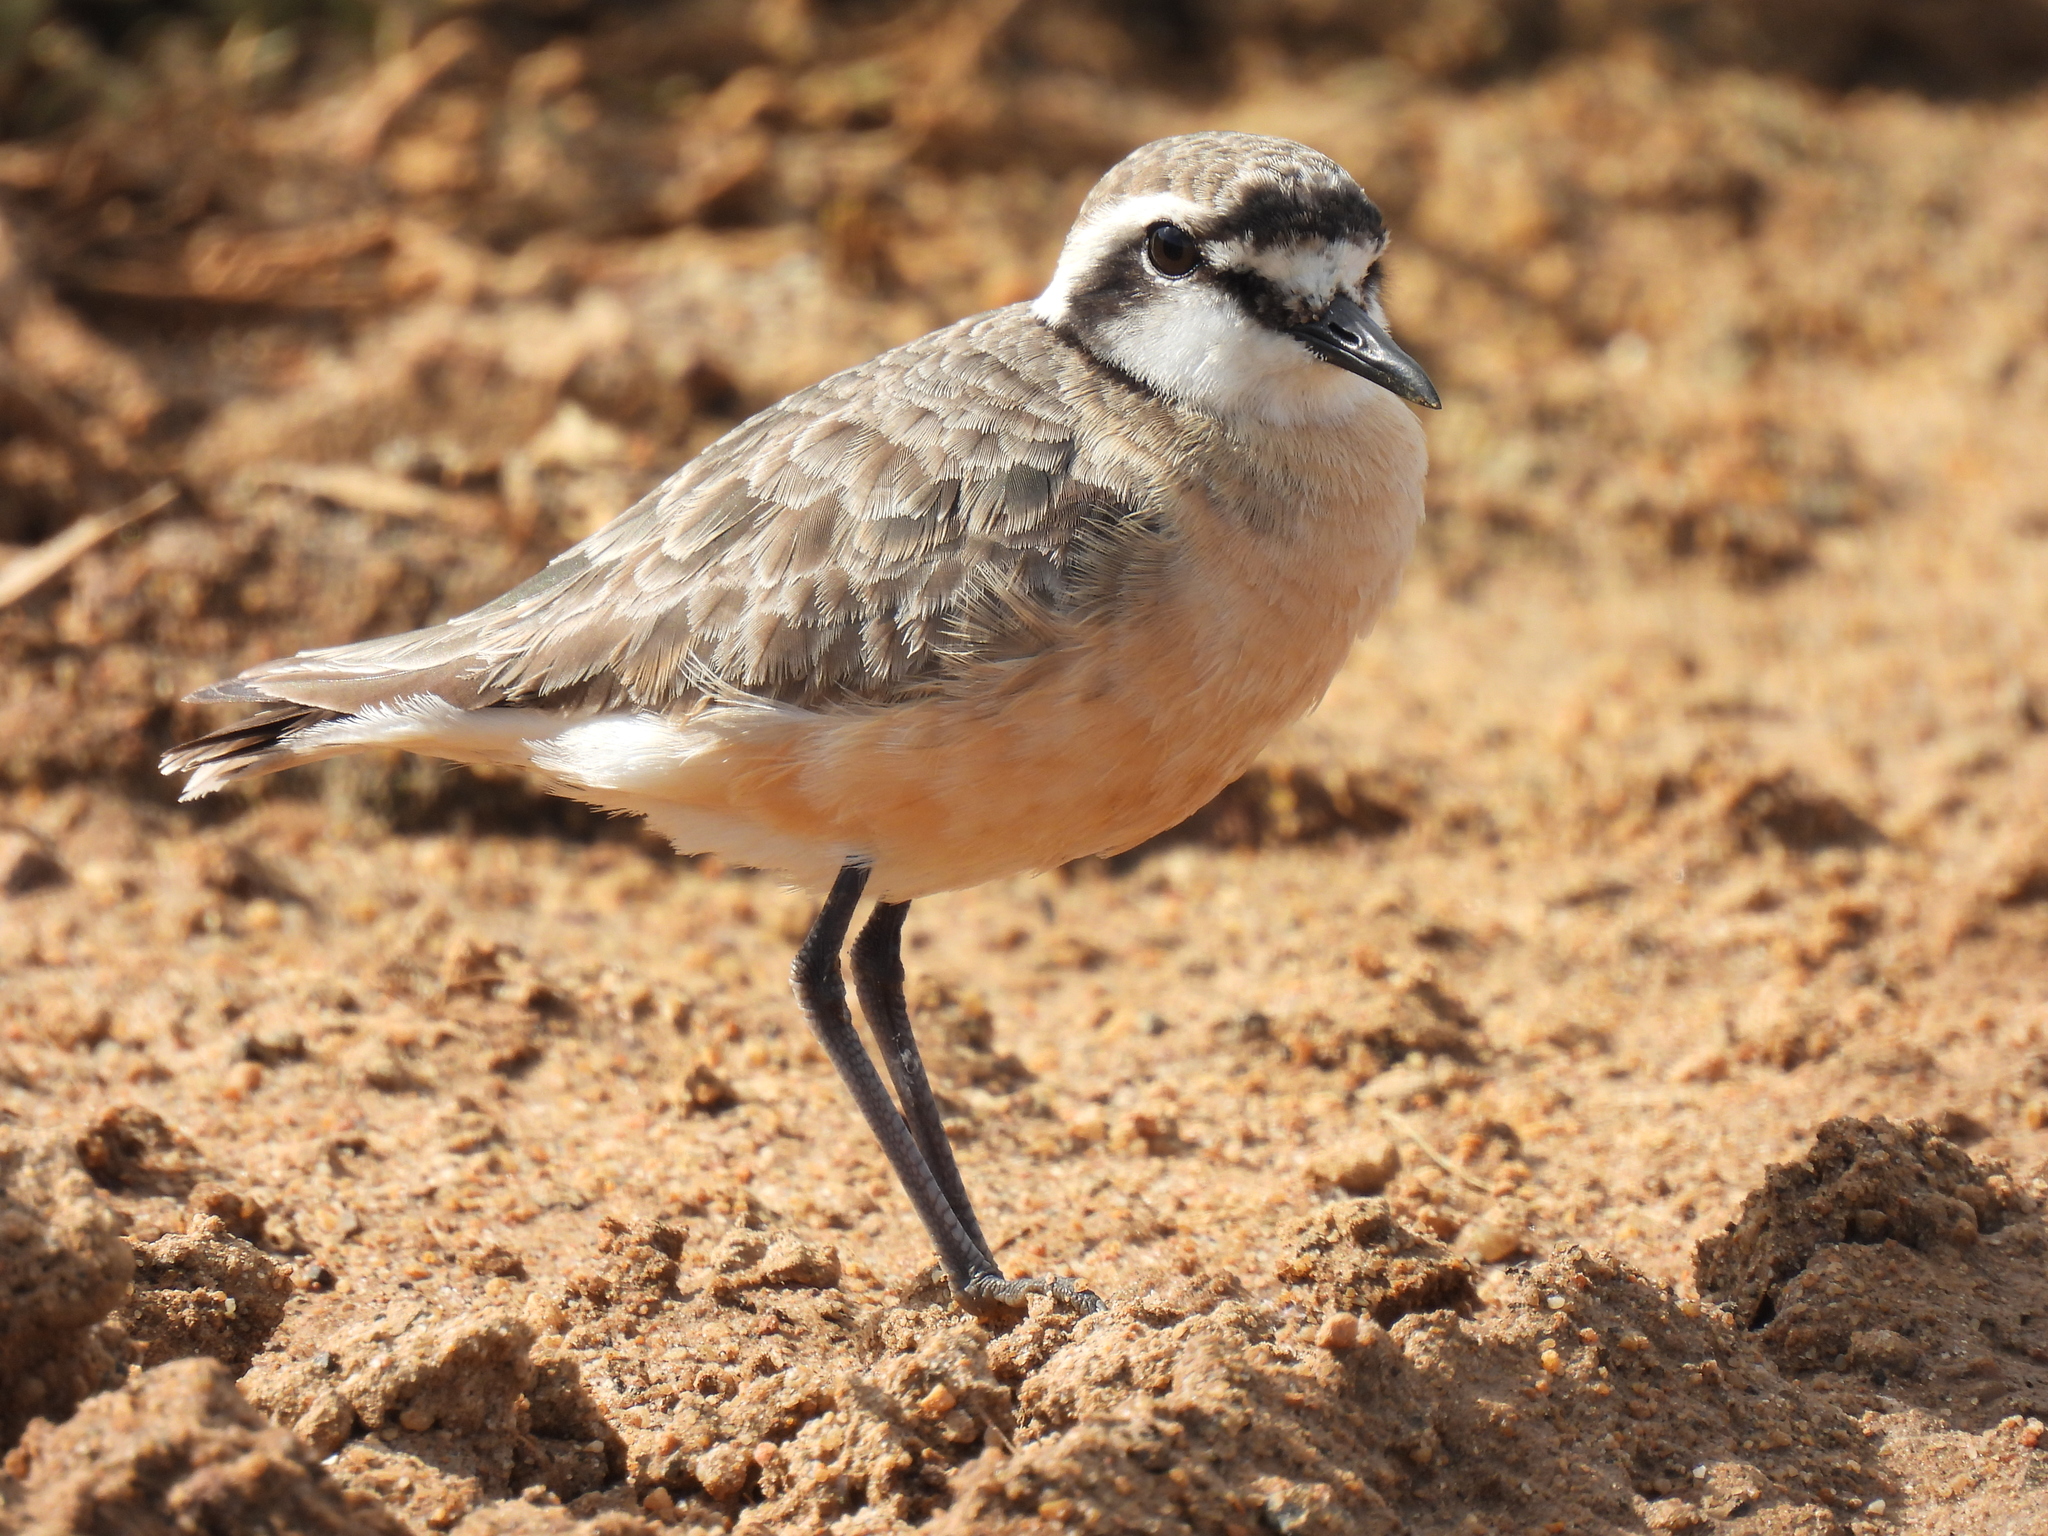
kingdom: Animalia
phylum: Chordata
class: Aves
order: Charadriiformes
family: Charadriidae
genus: Anarhynchus
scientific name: Anarhynchus
